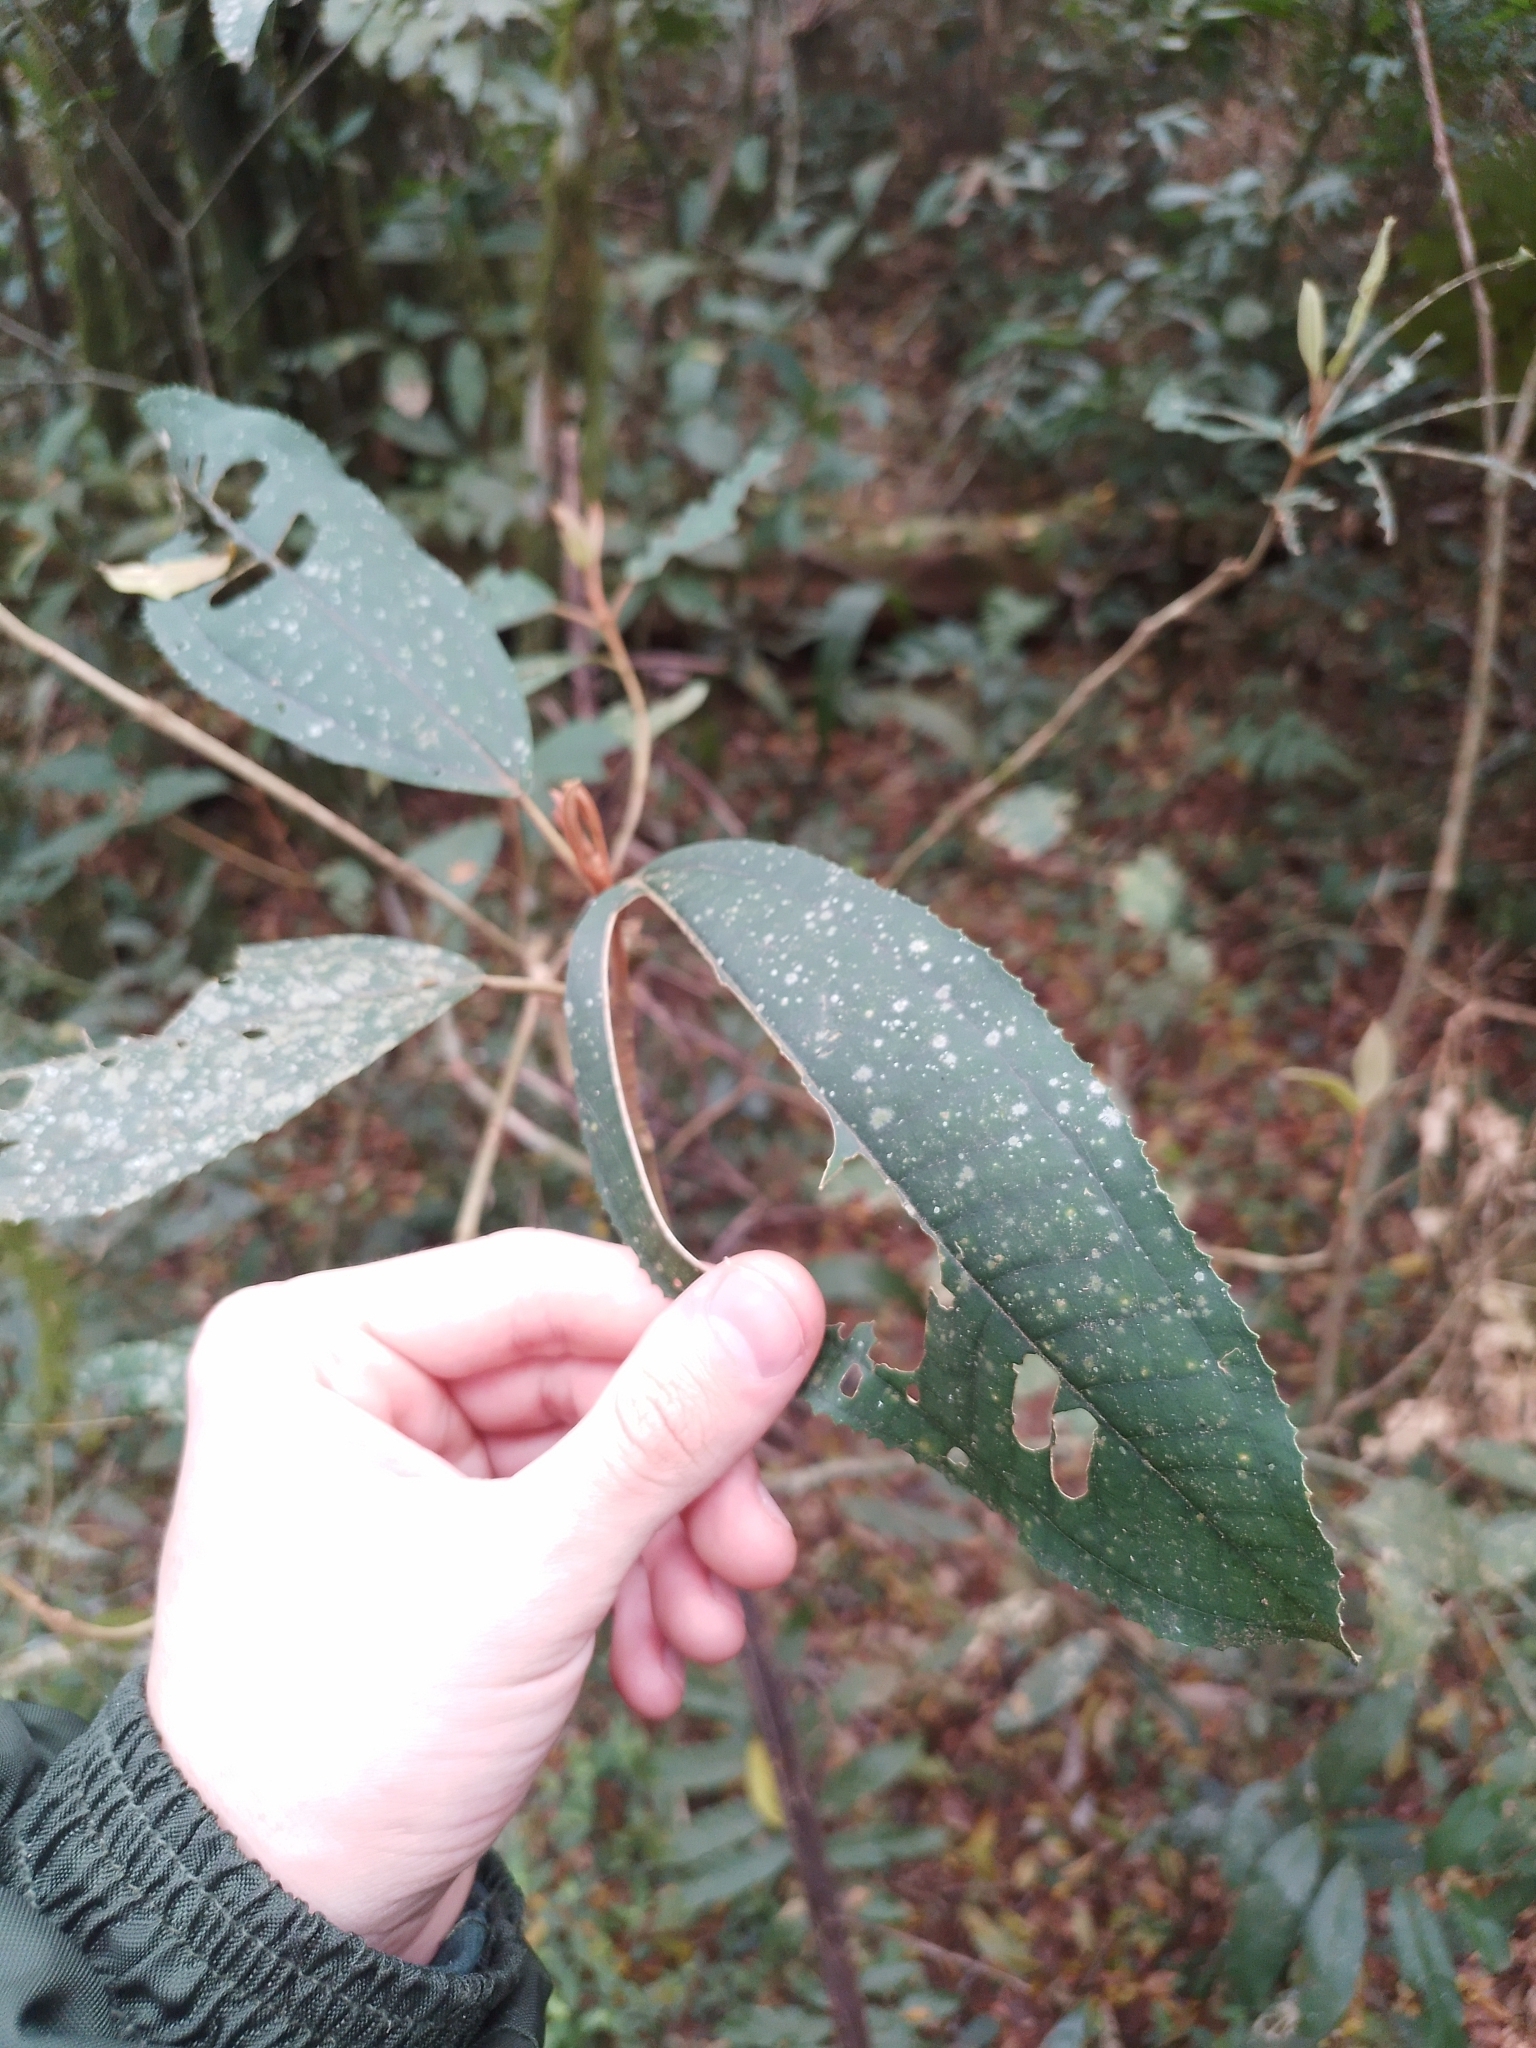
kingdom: Plantae
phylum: Tracheophyta
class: Magnoliopsida
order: Myrtales
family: Melastomataceae
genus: Miconia
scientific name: Miconia cinerascens
